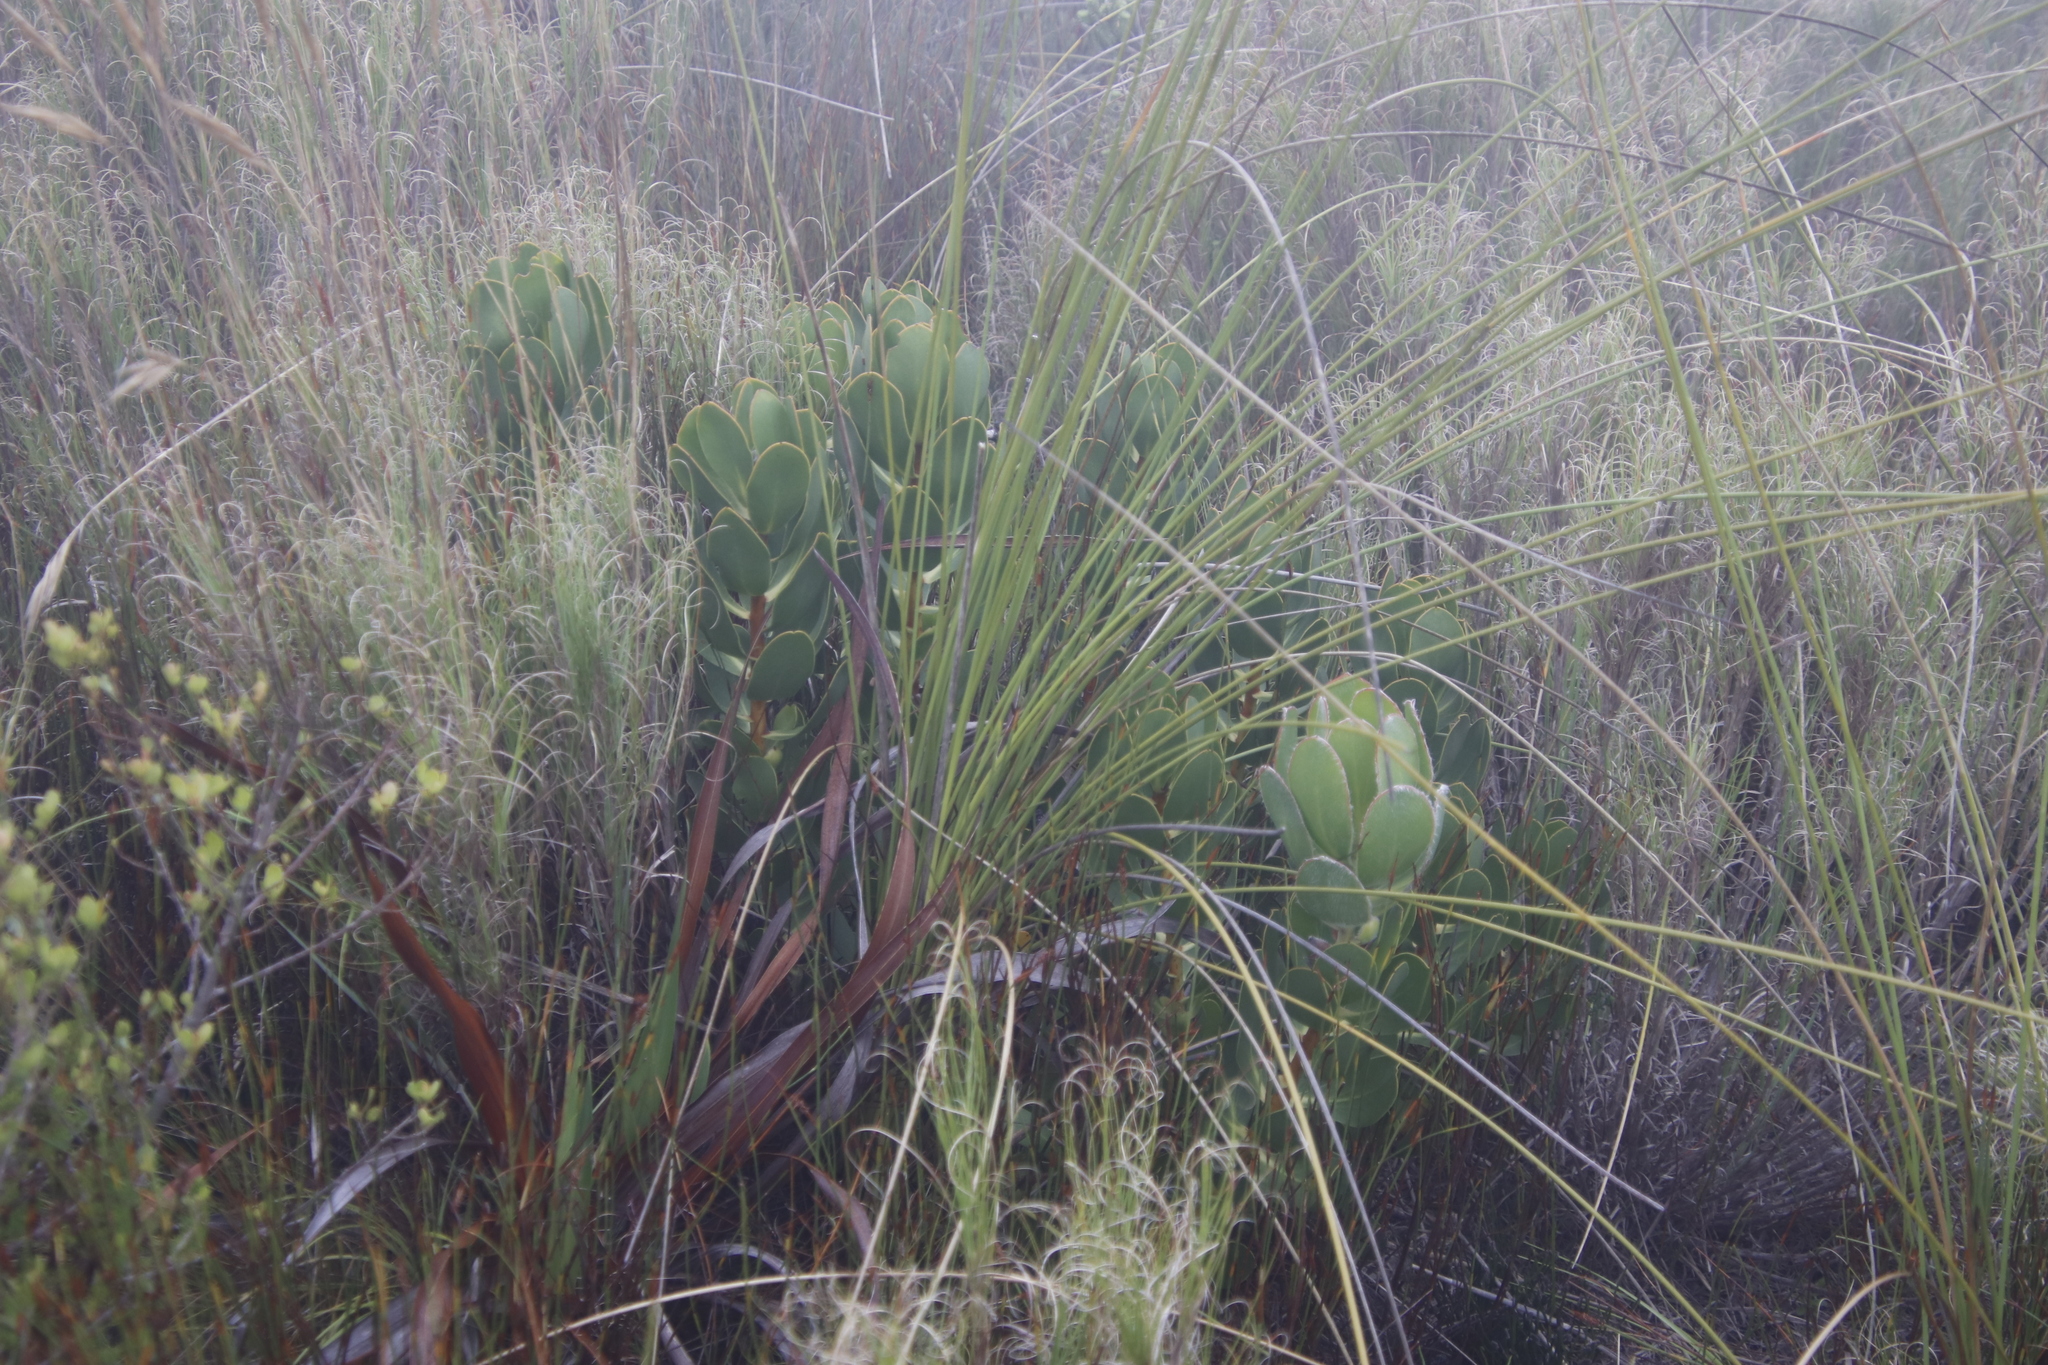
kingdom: Plantae
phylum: Tracheophyta
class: Magnoliopsida
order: Proteales
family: Proteaceae
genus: Protea
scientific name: Protea speciosa
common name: Brown-beard sugarbush
